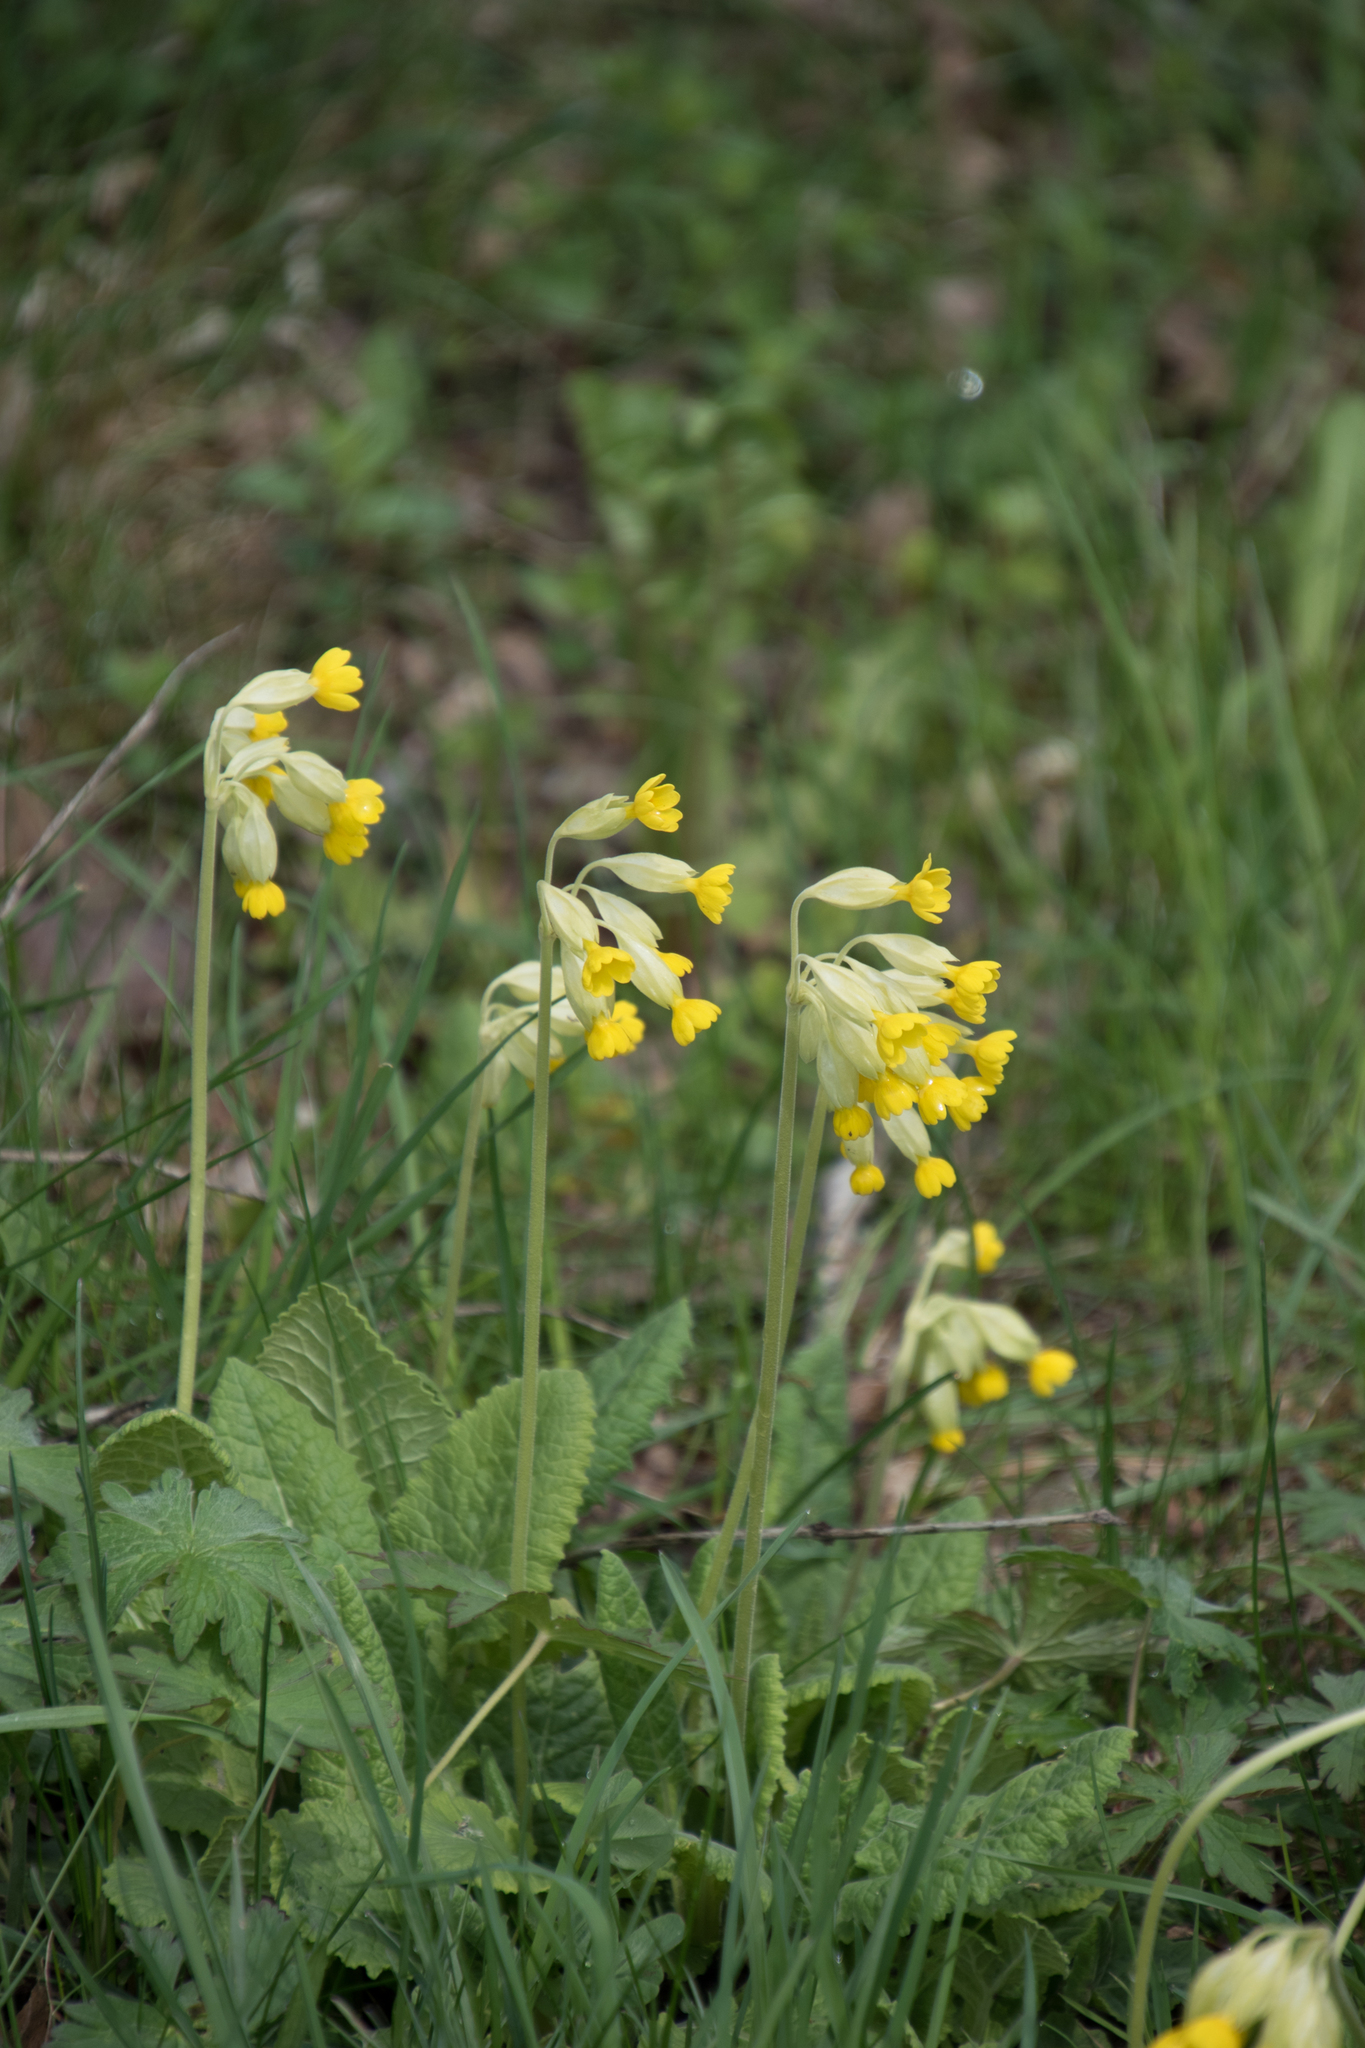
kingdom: Plantae
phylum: Tracheophyta
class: Magnoliopsida
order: Ericales
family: Primulaceae
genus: Primula
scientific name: Primula veris
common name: Cowslip
